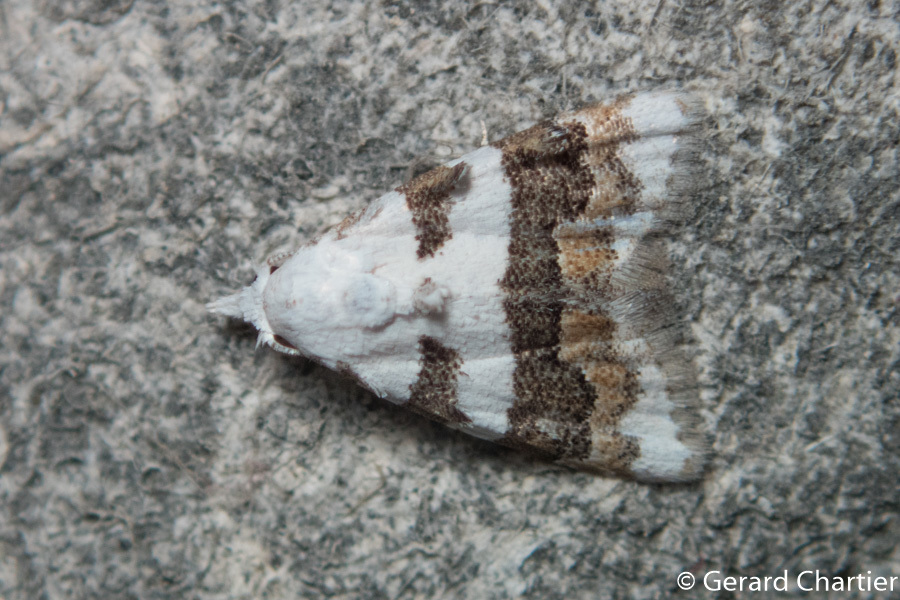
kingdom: Animalia
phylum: Arthropoda
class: Insecta
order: Lepidoptera
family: Nolidae
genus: Nola
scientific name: Nola lucidalis
